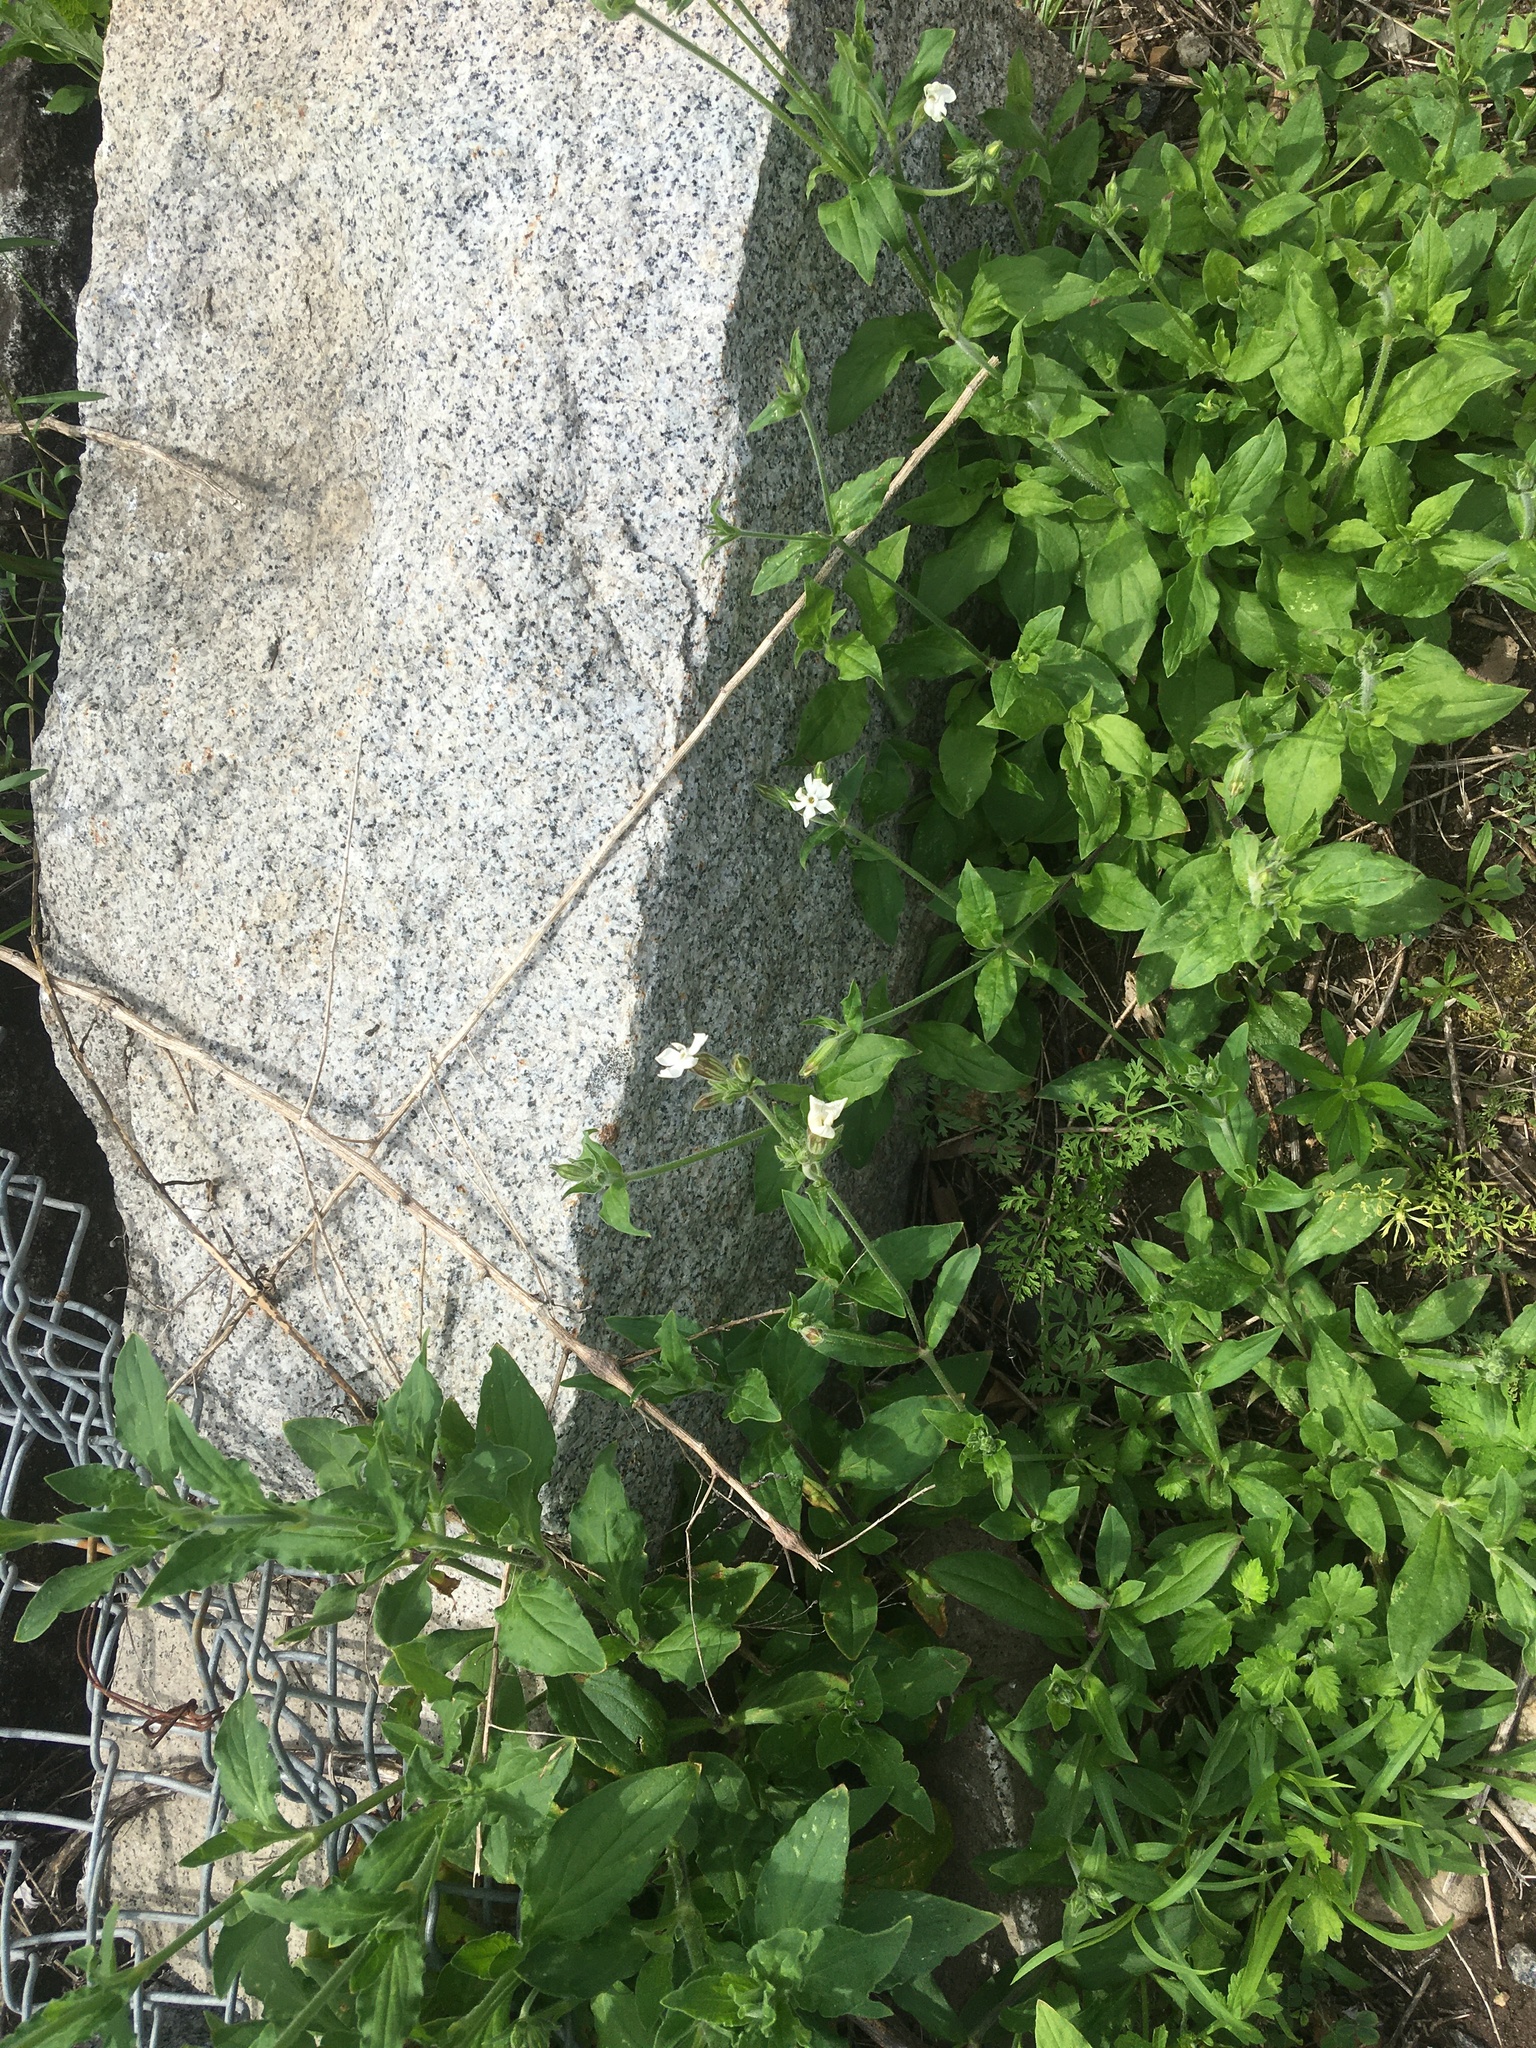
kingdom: Plantae
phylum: Tracheophyta
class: Magnoliopsida
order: Caryophyllales
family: Caryophyllaceae
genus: Silene
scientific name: Silene latifolia
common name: White campion
